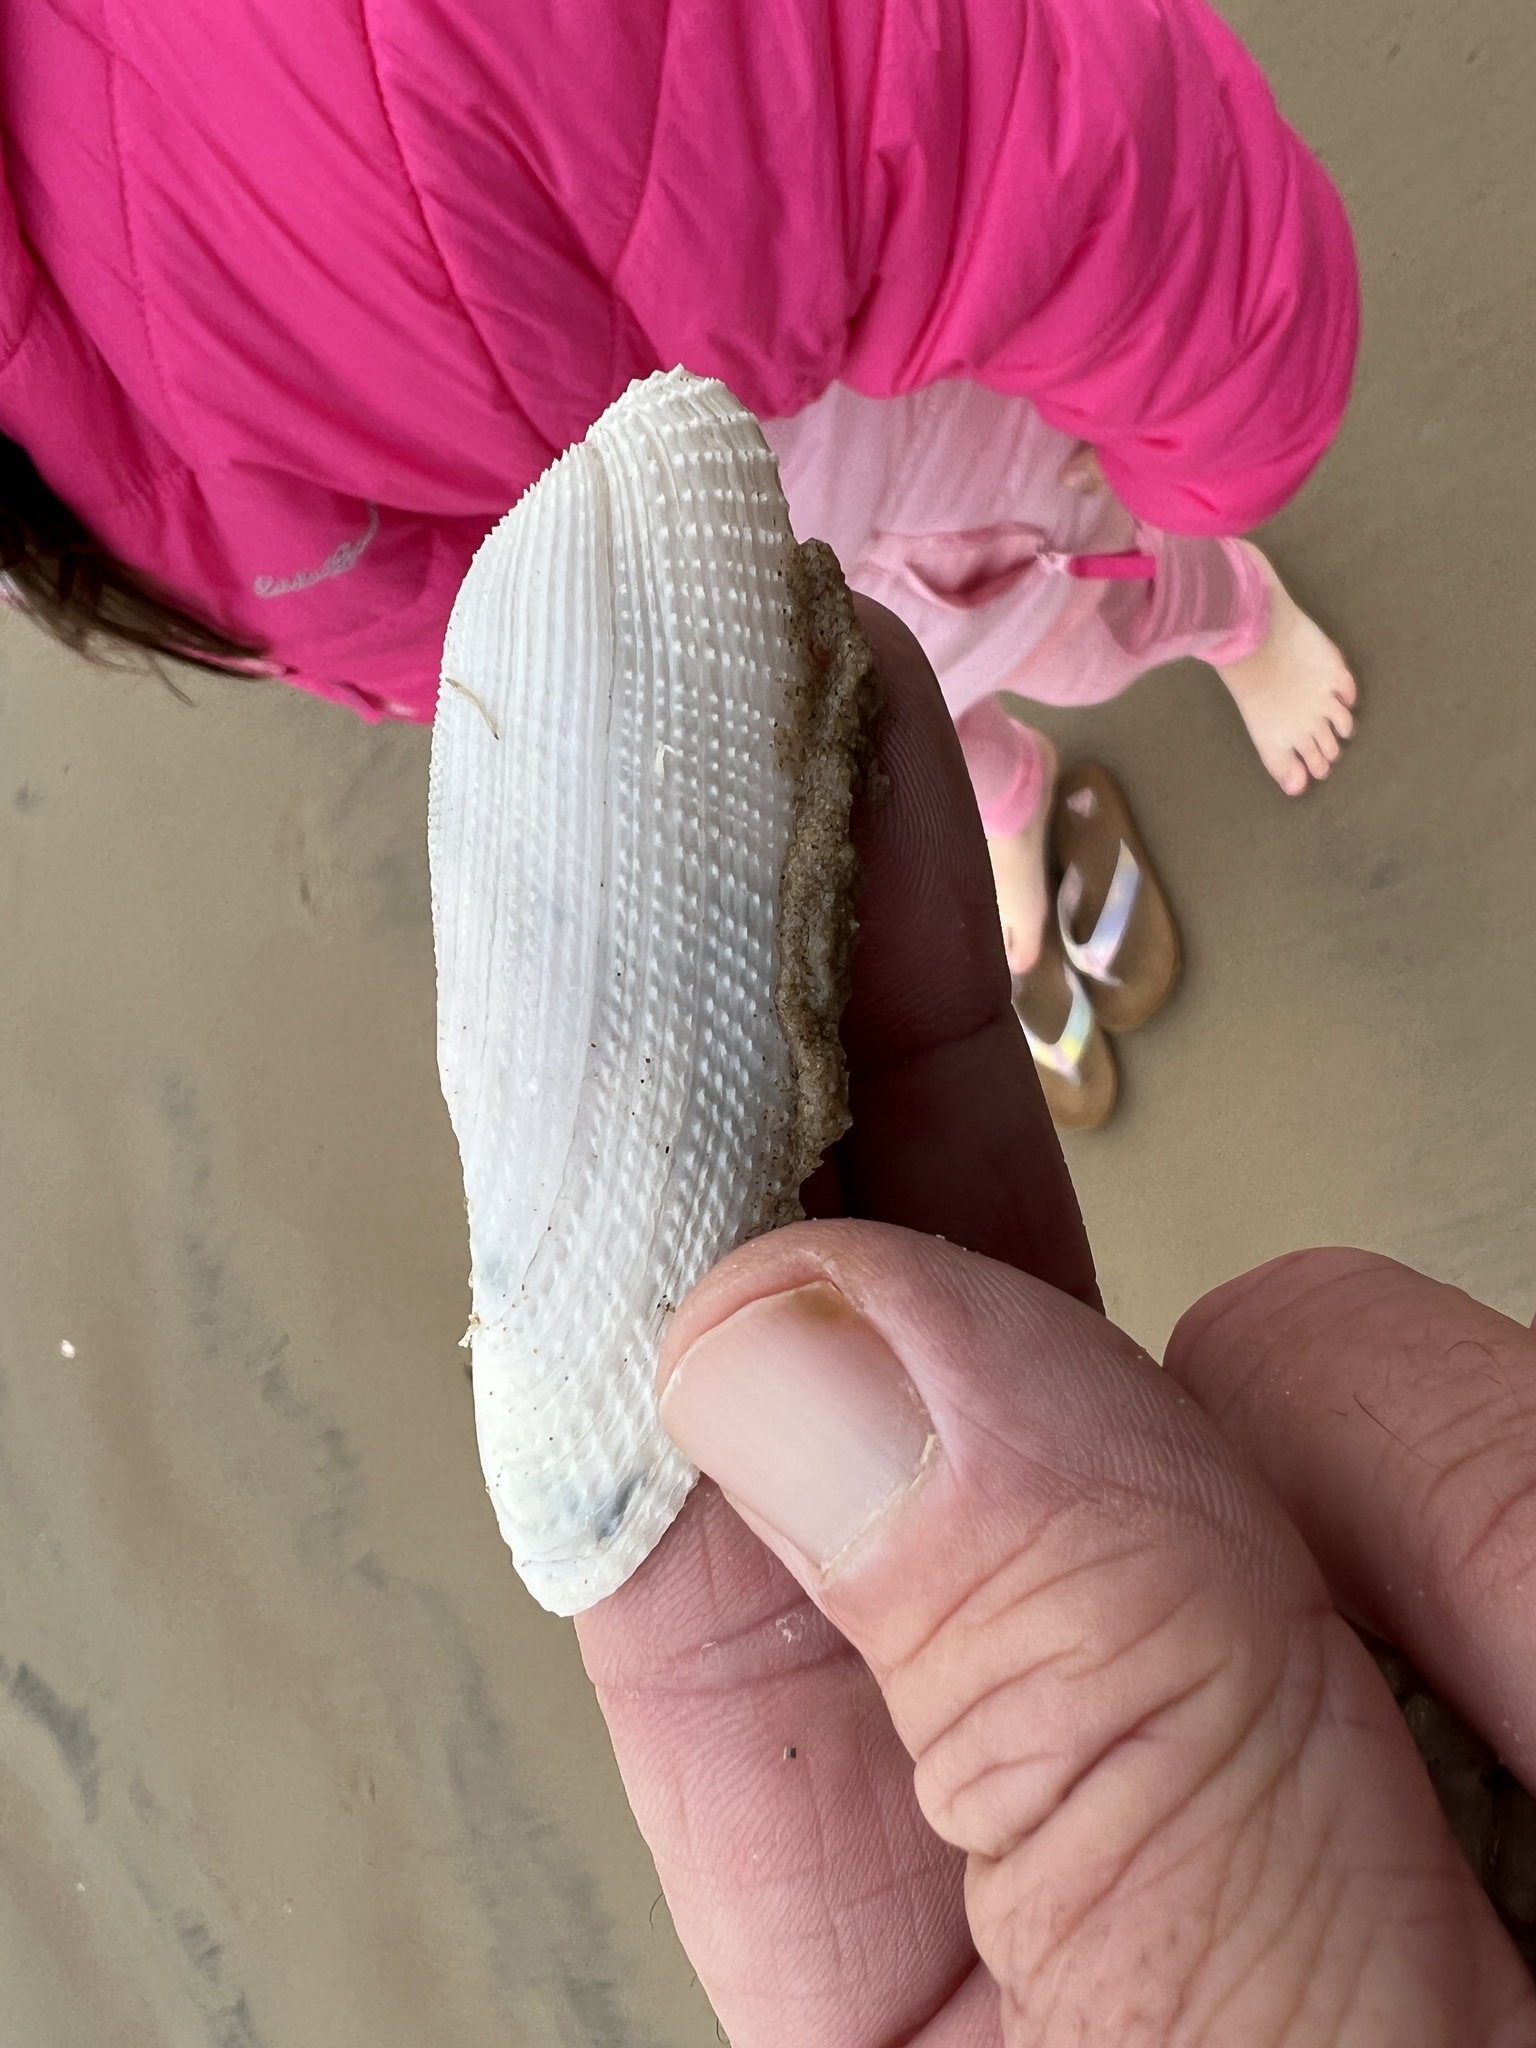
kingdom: Animalia
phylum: Mollusca
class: Bivalvia
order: Myida
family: Pholadidae
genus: Pholas
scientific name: Pholas campechiensis
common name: Campeche angel wing
